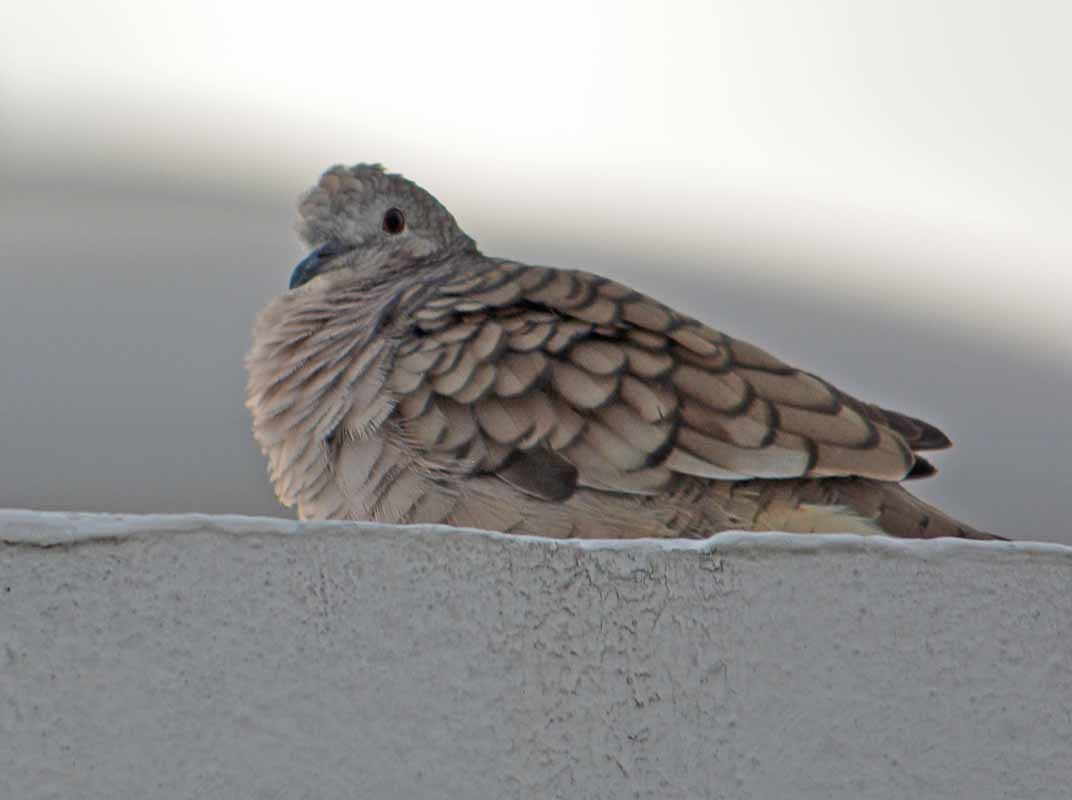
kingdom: Animalia
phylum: Chordata
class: Aves
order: Columbiformes
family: Columbidae
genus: Columbina
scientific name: Columbina inca
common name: Inca dove
